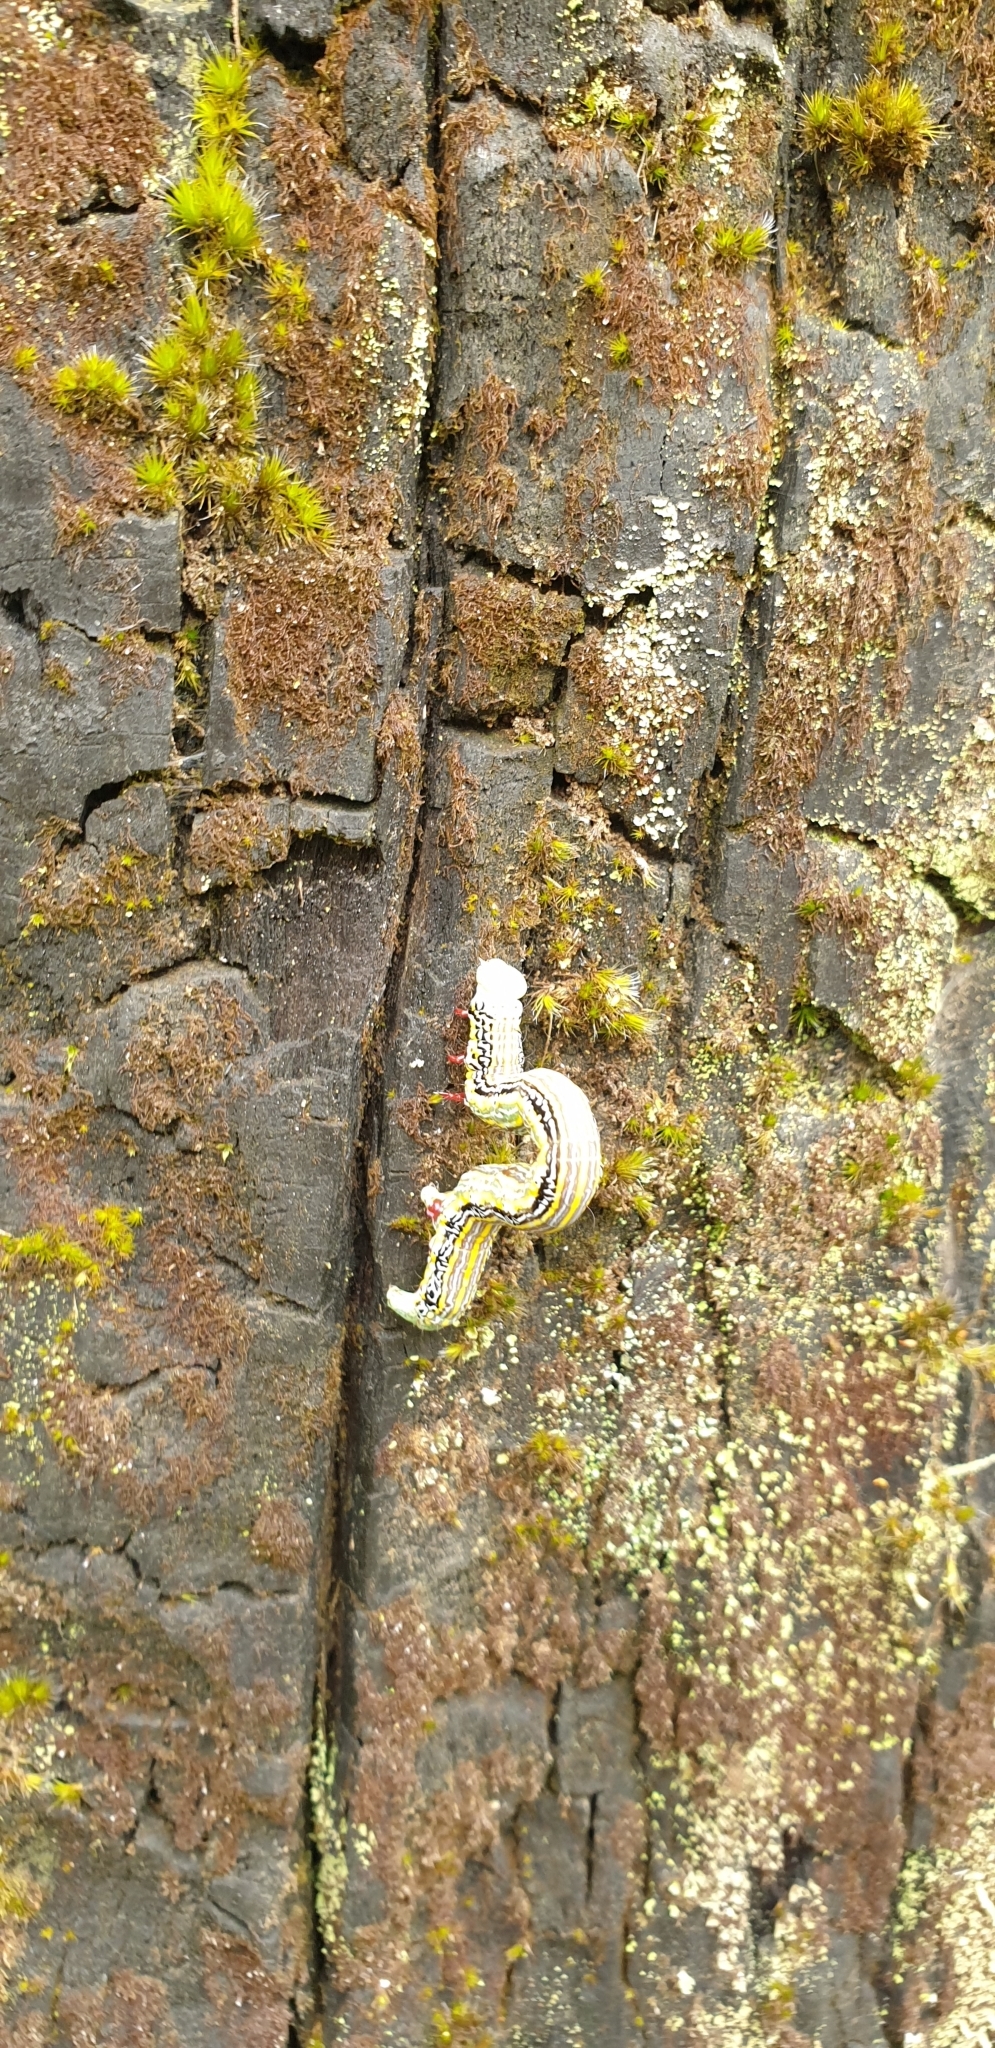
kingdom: Animalia
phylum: Arthropoda
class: Insecta
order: Lepidoptera
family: Geometridae
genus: Chlenias
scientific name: Chlenias banksiaria
